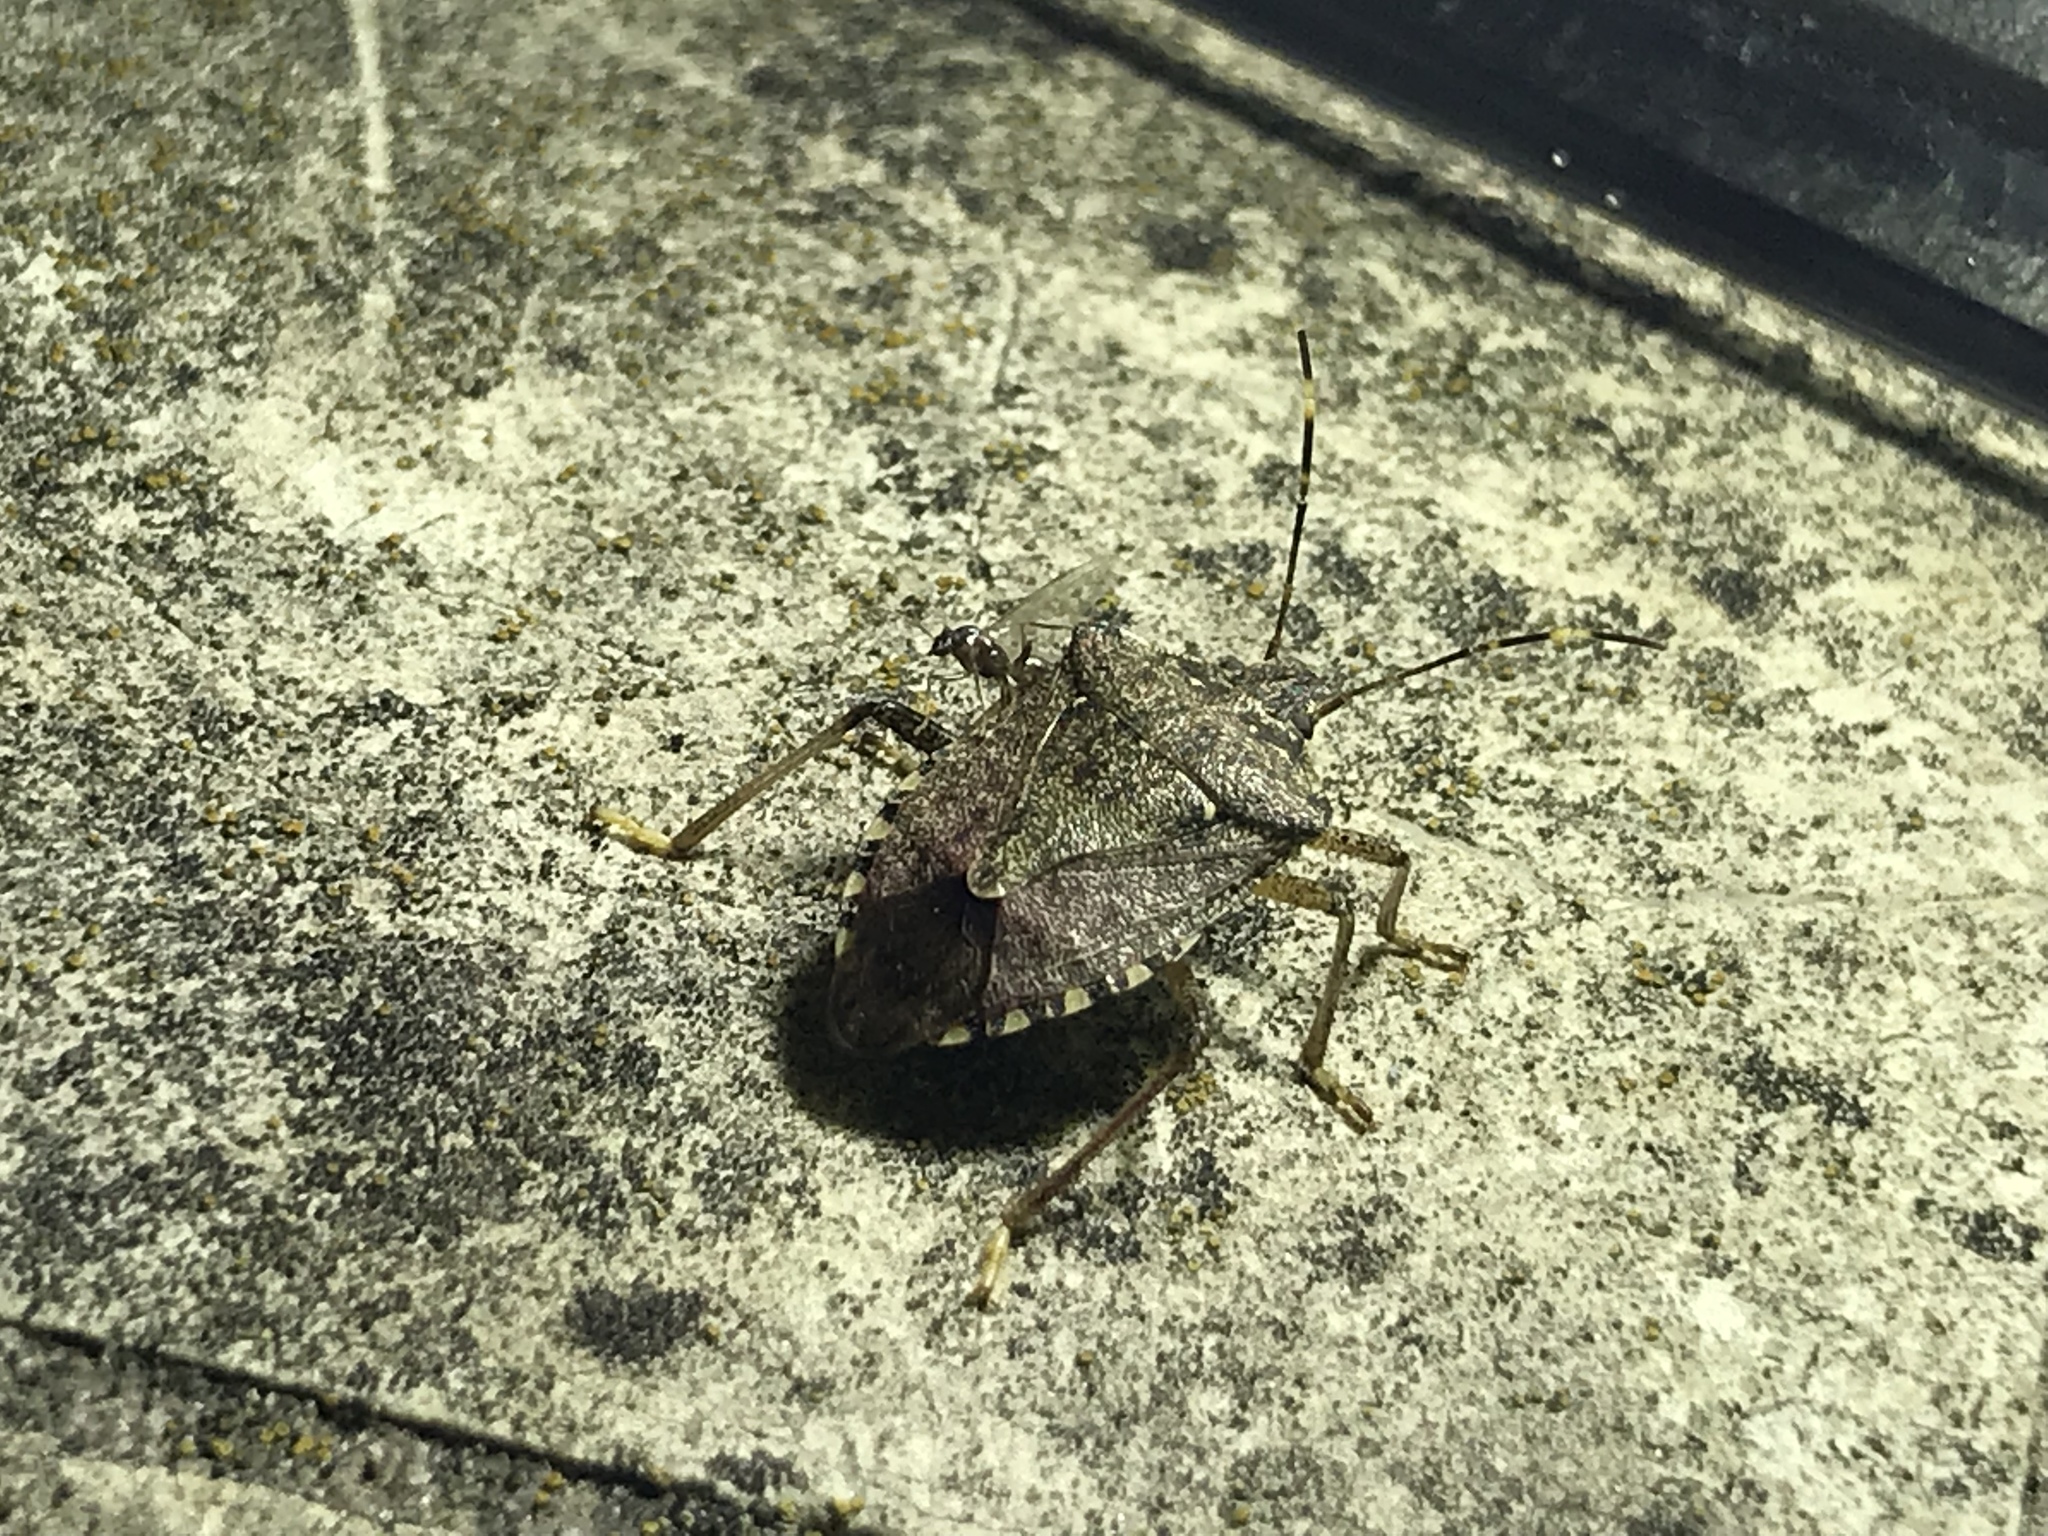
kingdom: Animalia
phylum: Arthropoda
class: Insecta
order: Hemiptera
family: Pentatomidae
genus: Halyomorpha
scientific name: Halyomorpha halys
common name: Brown marmorated stink bug
